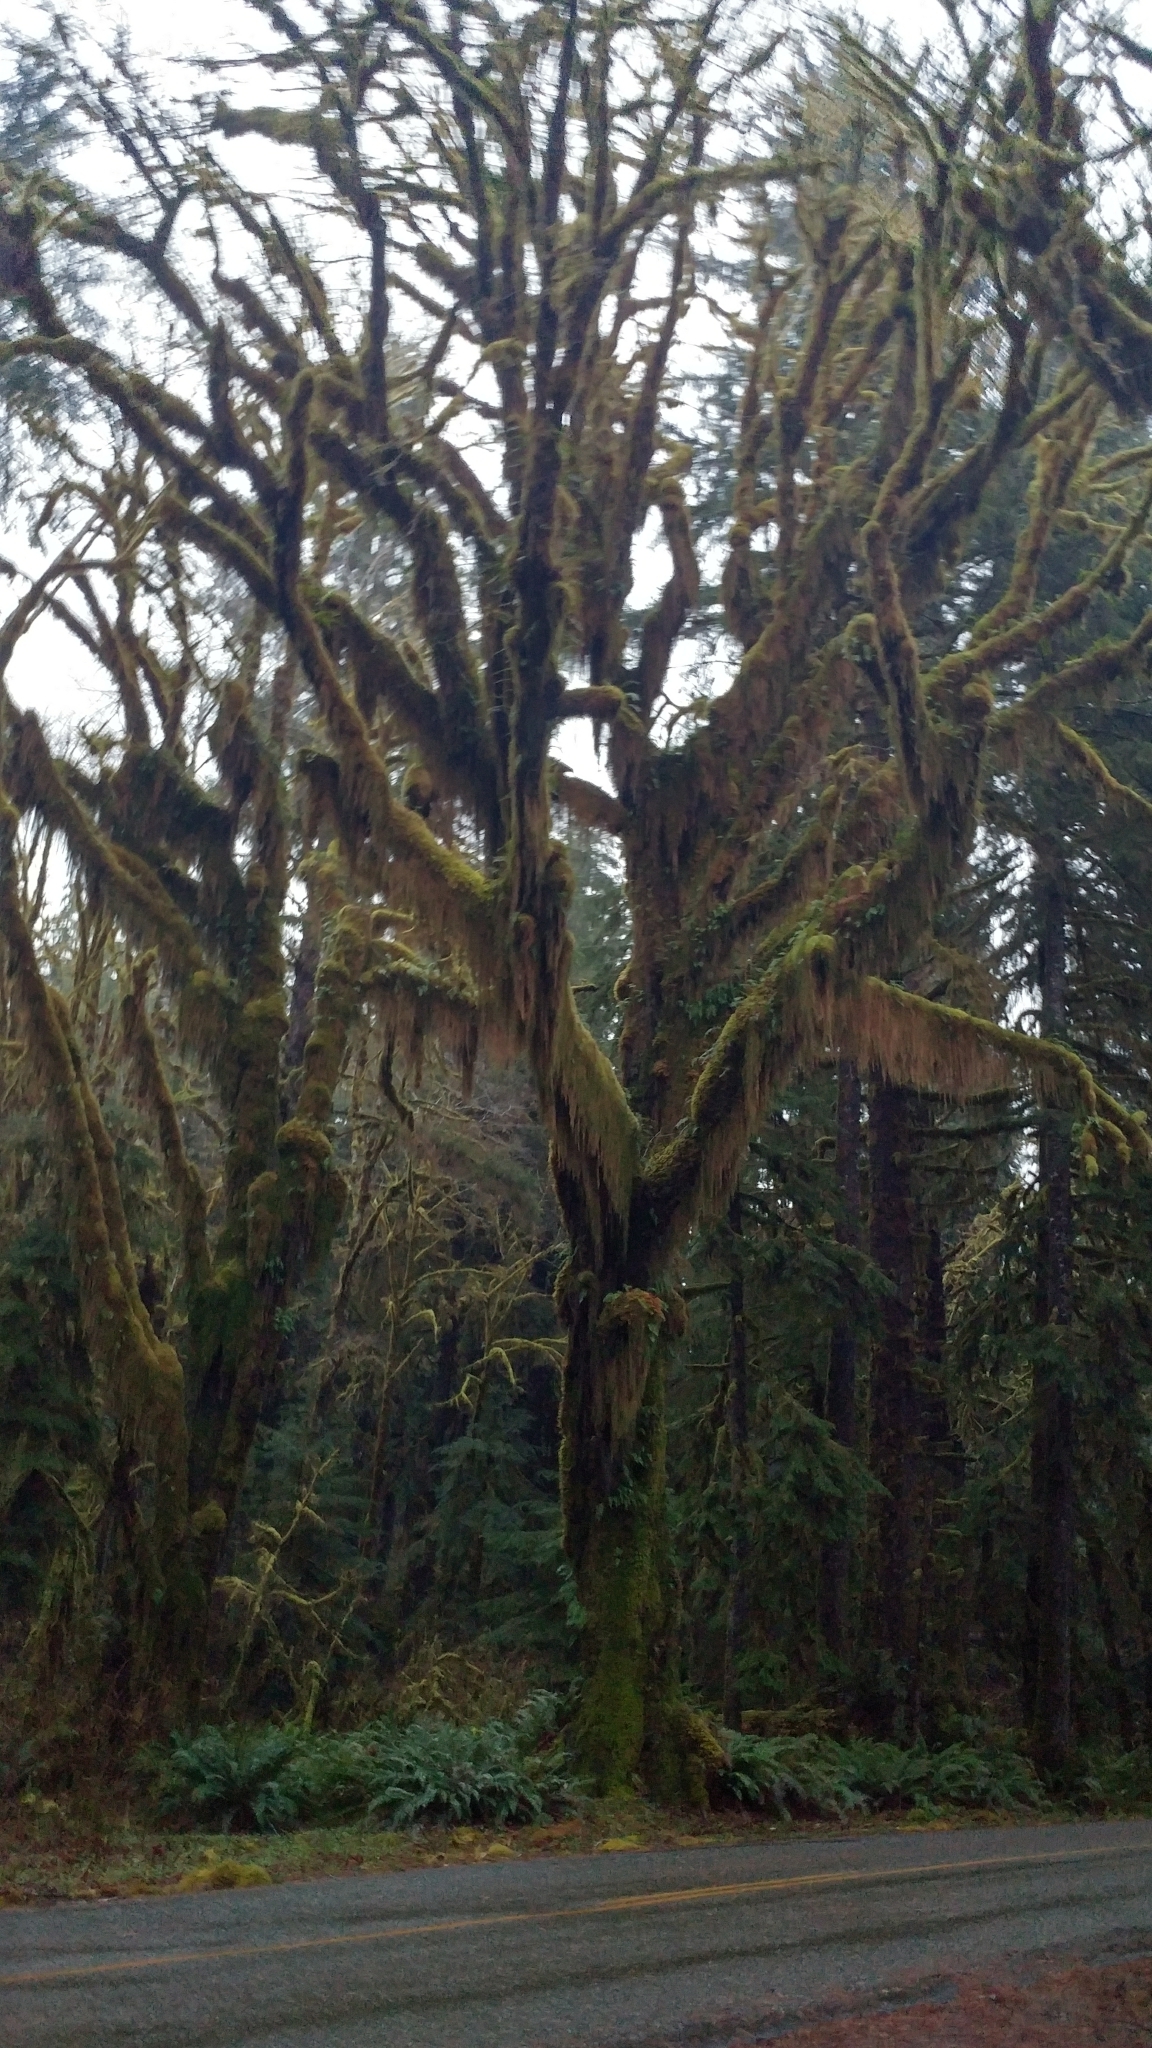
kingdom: Plantae
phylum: Tracheophyta
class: Magnoliopsida
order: Sapindales
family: Sapindaceae
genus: Acer
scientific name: Acer macrophyllum
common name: Oregon maple
